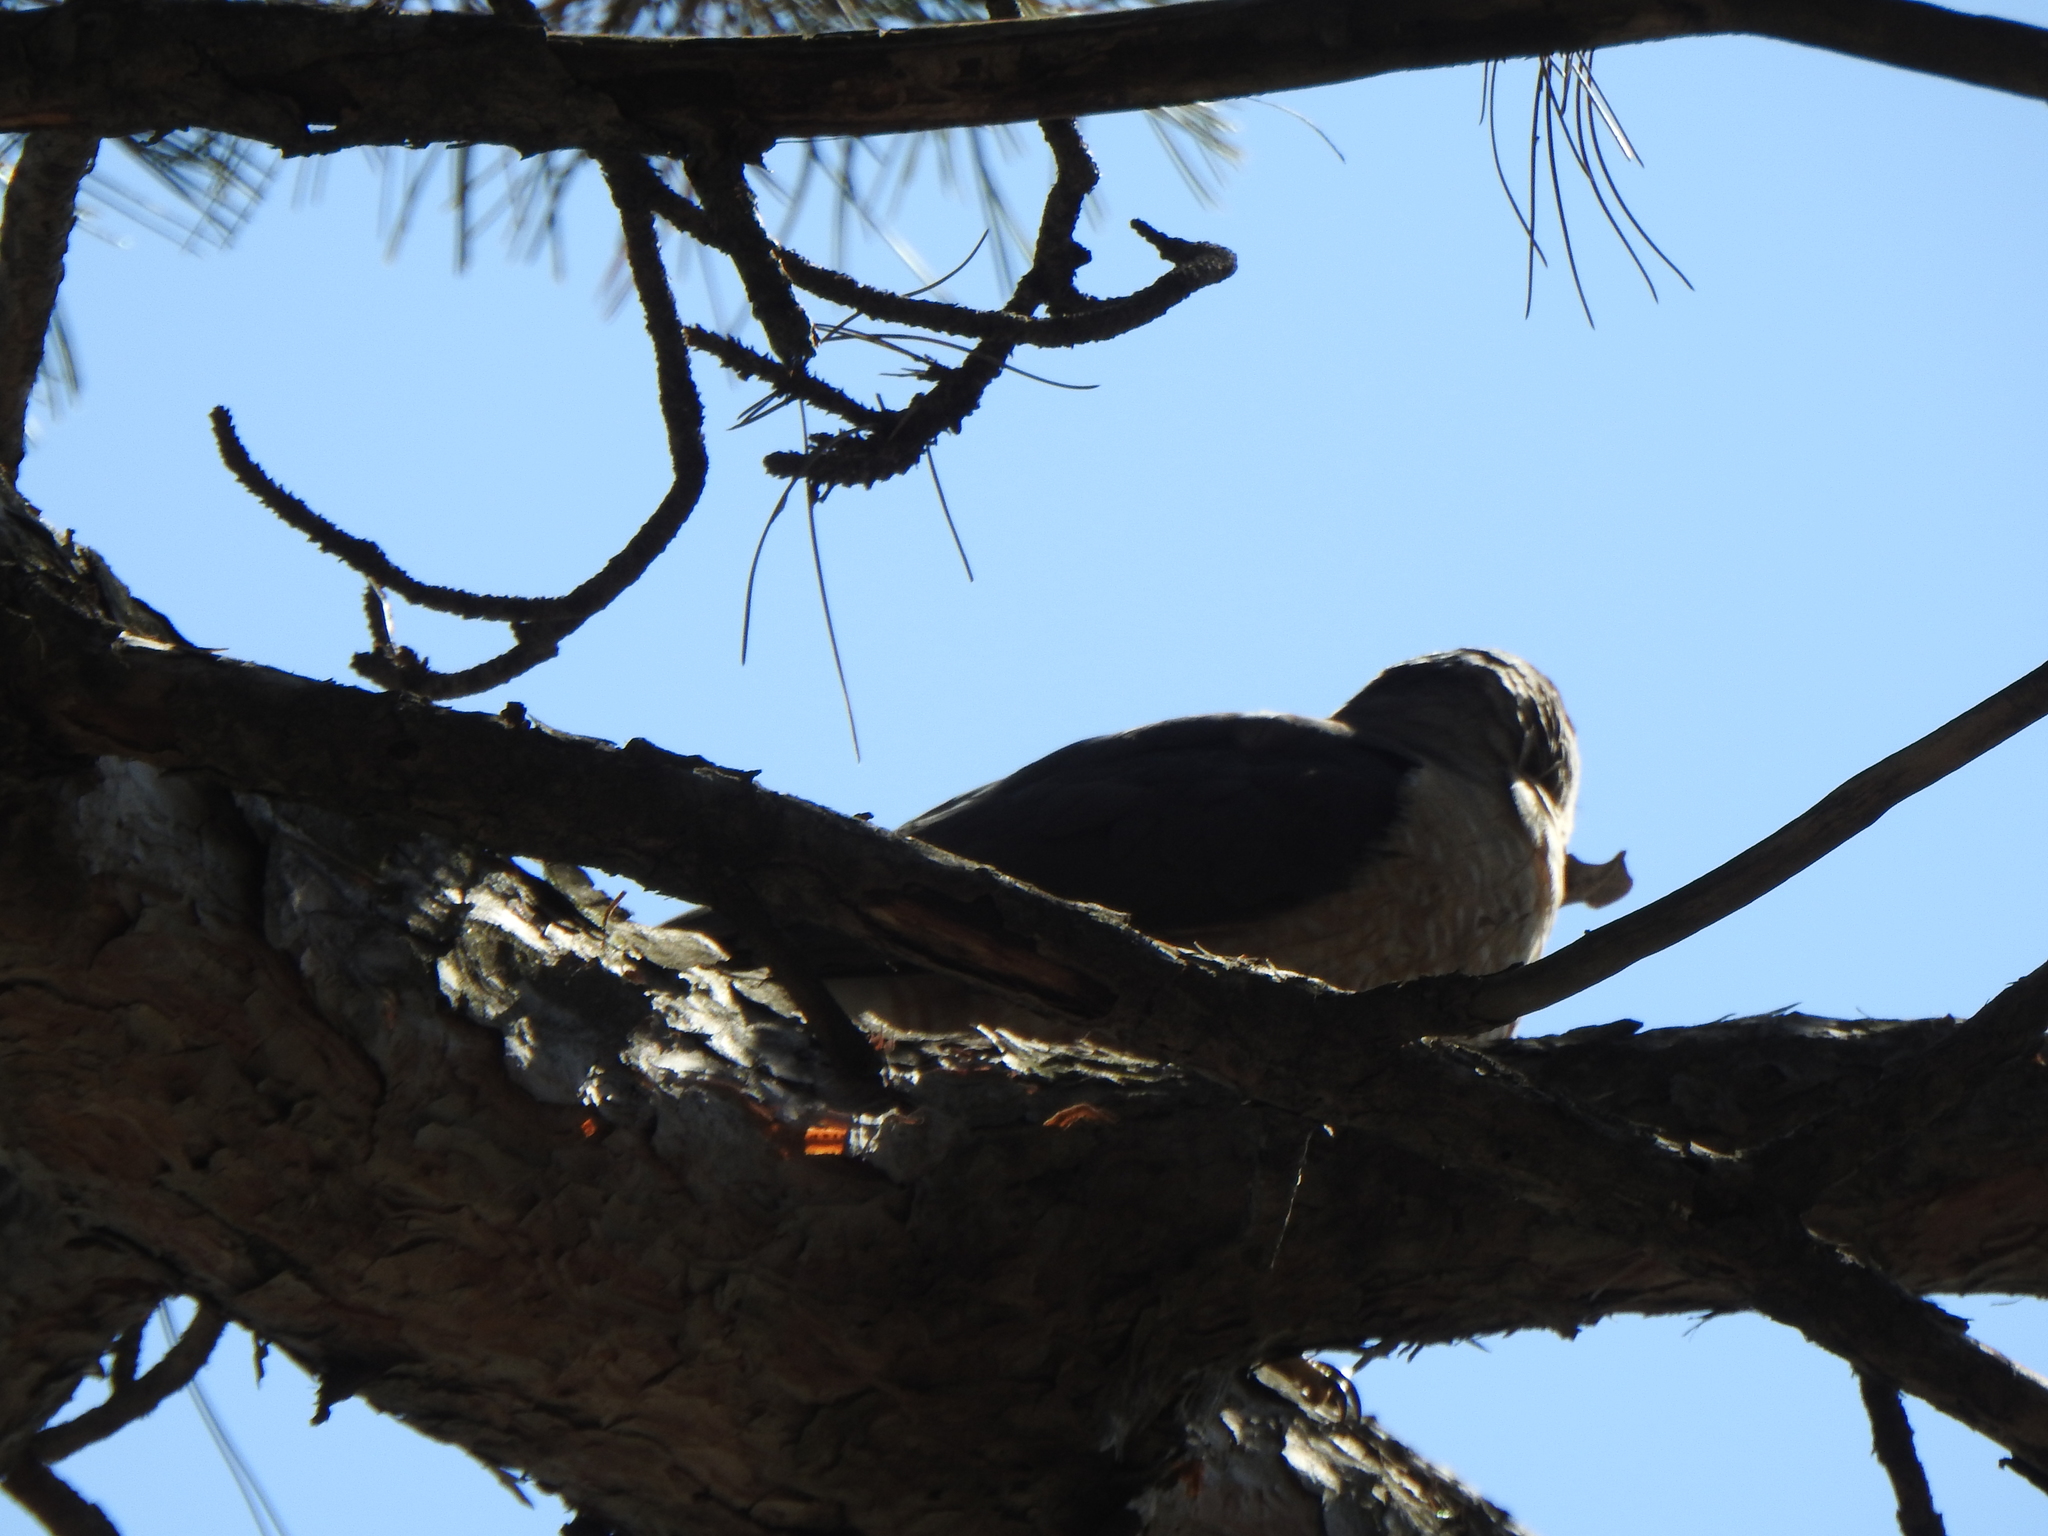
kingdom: Animalia
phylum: Chordata
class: Aves
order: Accipitriformes
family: Accipitridae
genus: Accipiter
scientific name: Accipiter cooperii
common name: Cooper's hawk
